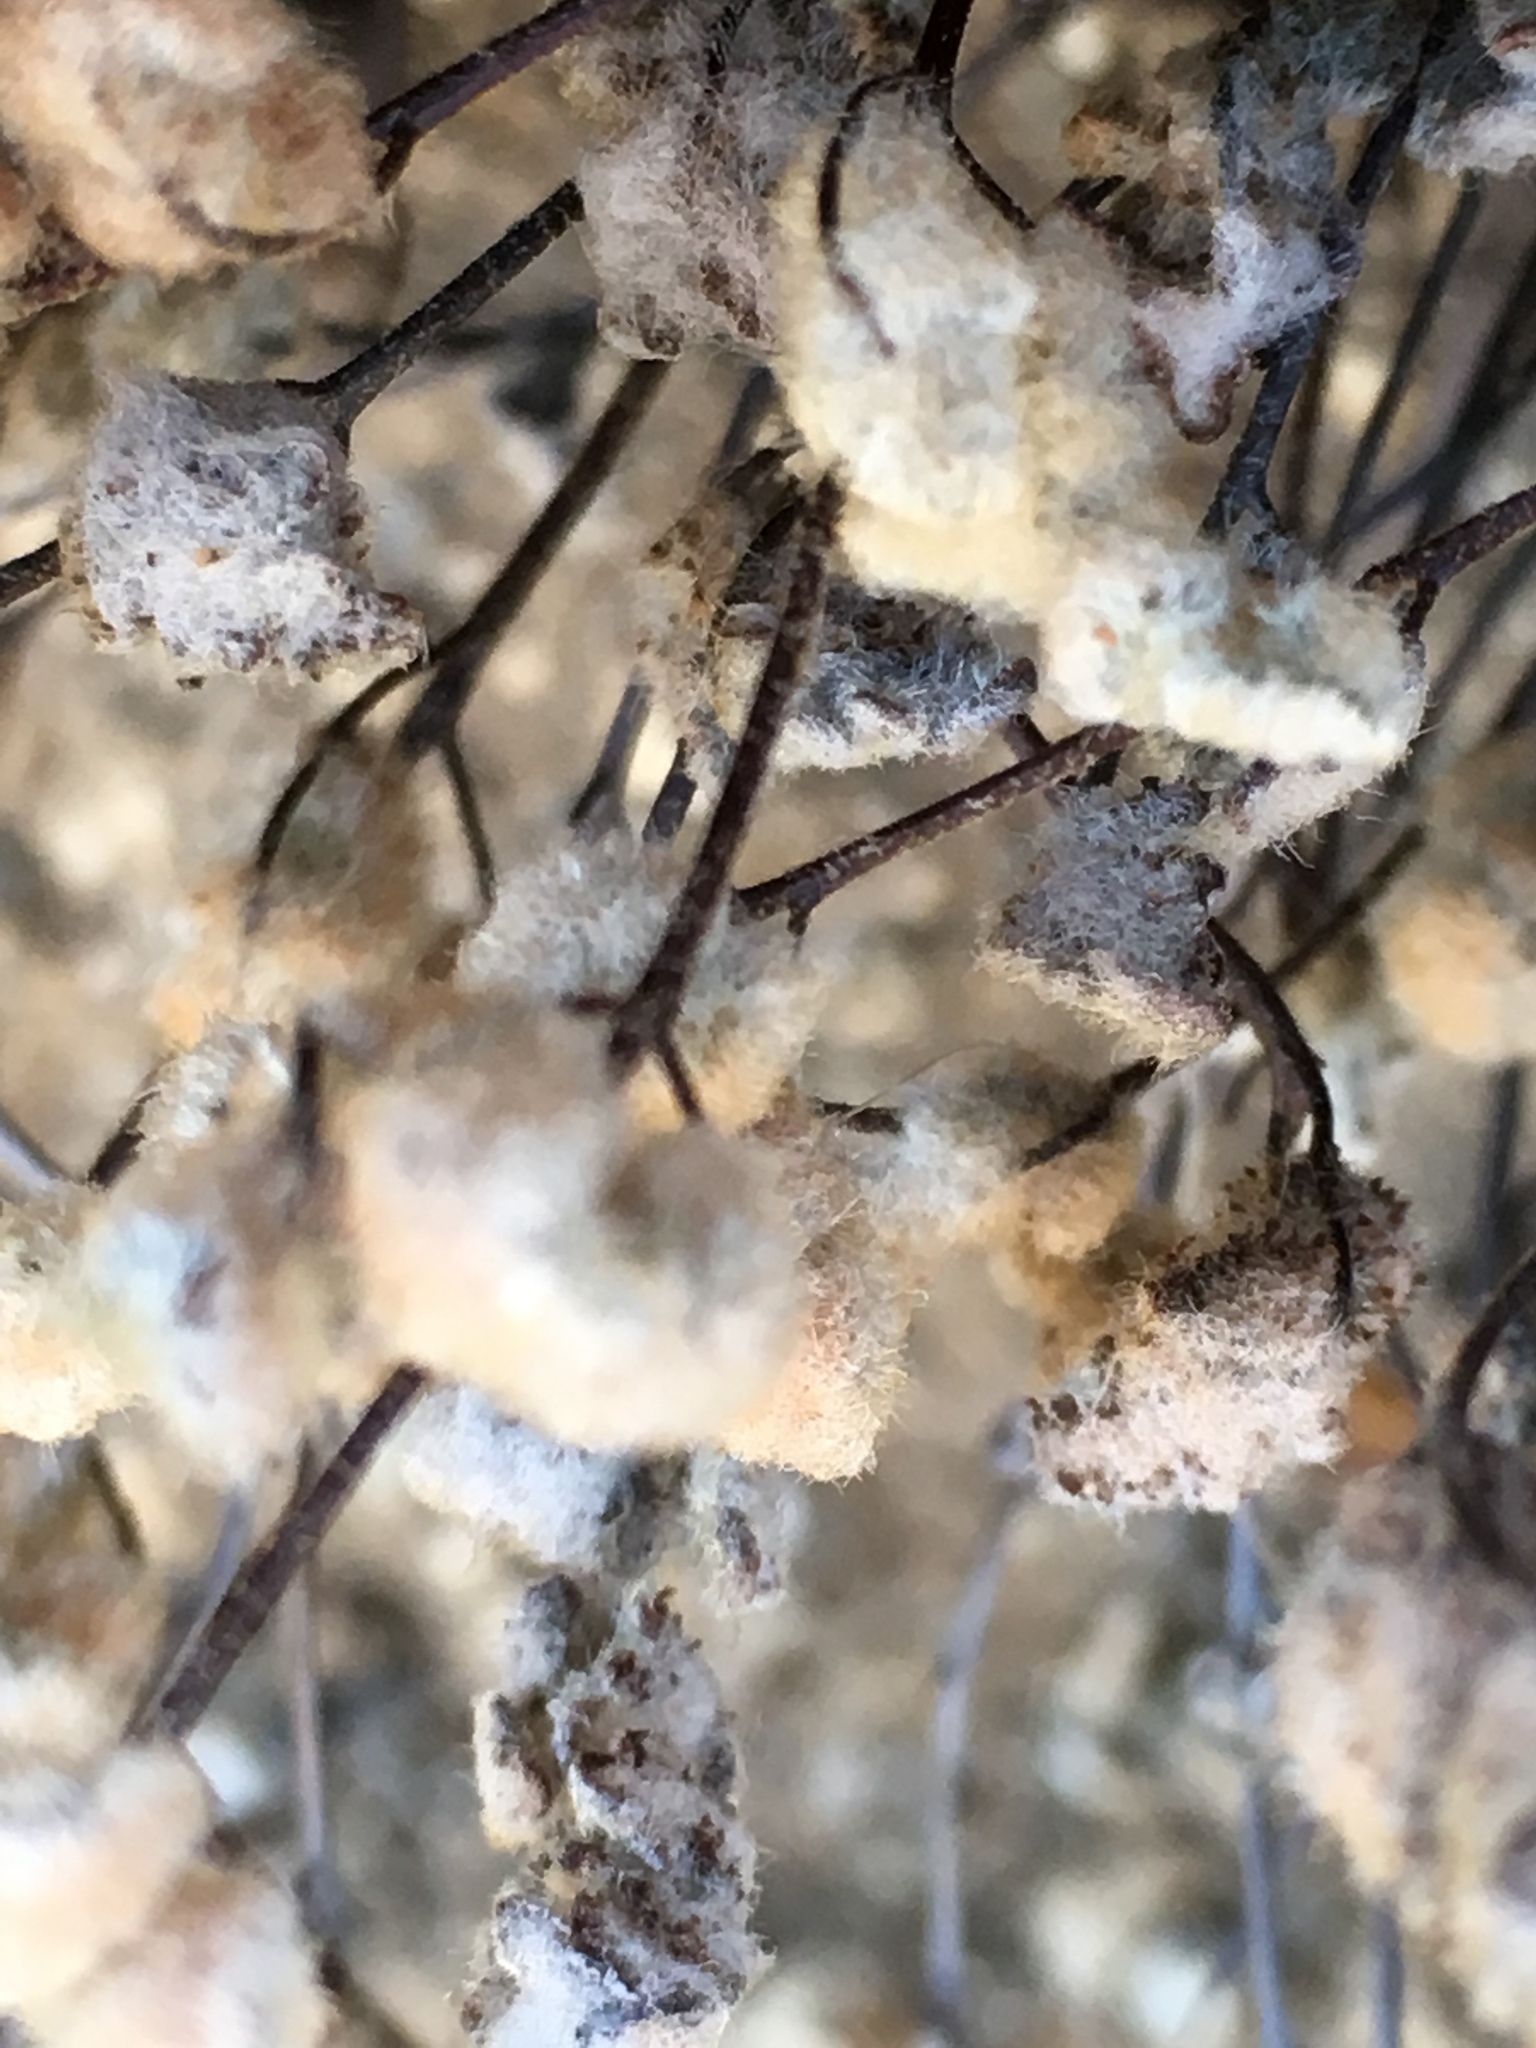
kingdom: Plantae
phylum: Tracheophyta
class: Polypodiopsida
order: Polypodiales
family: Pteridaceae
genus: Myriopteris
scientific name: Myriopteris parryi
